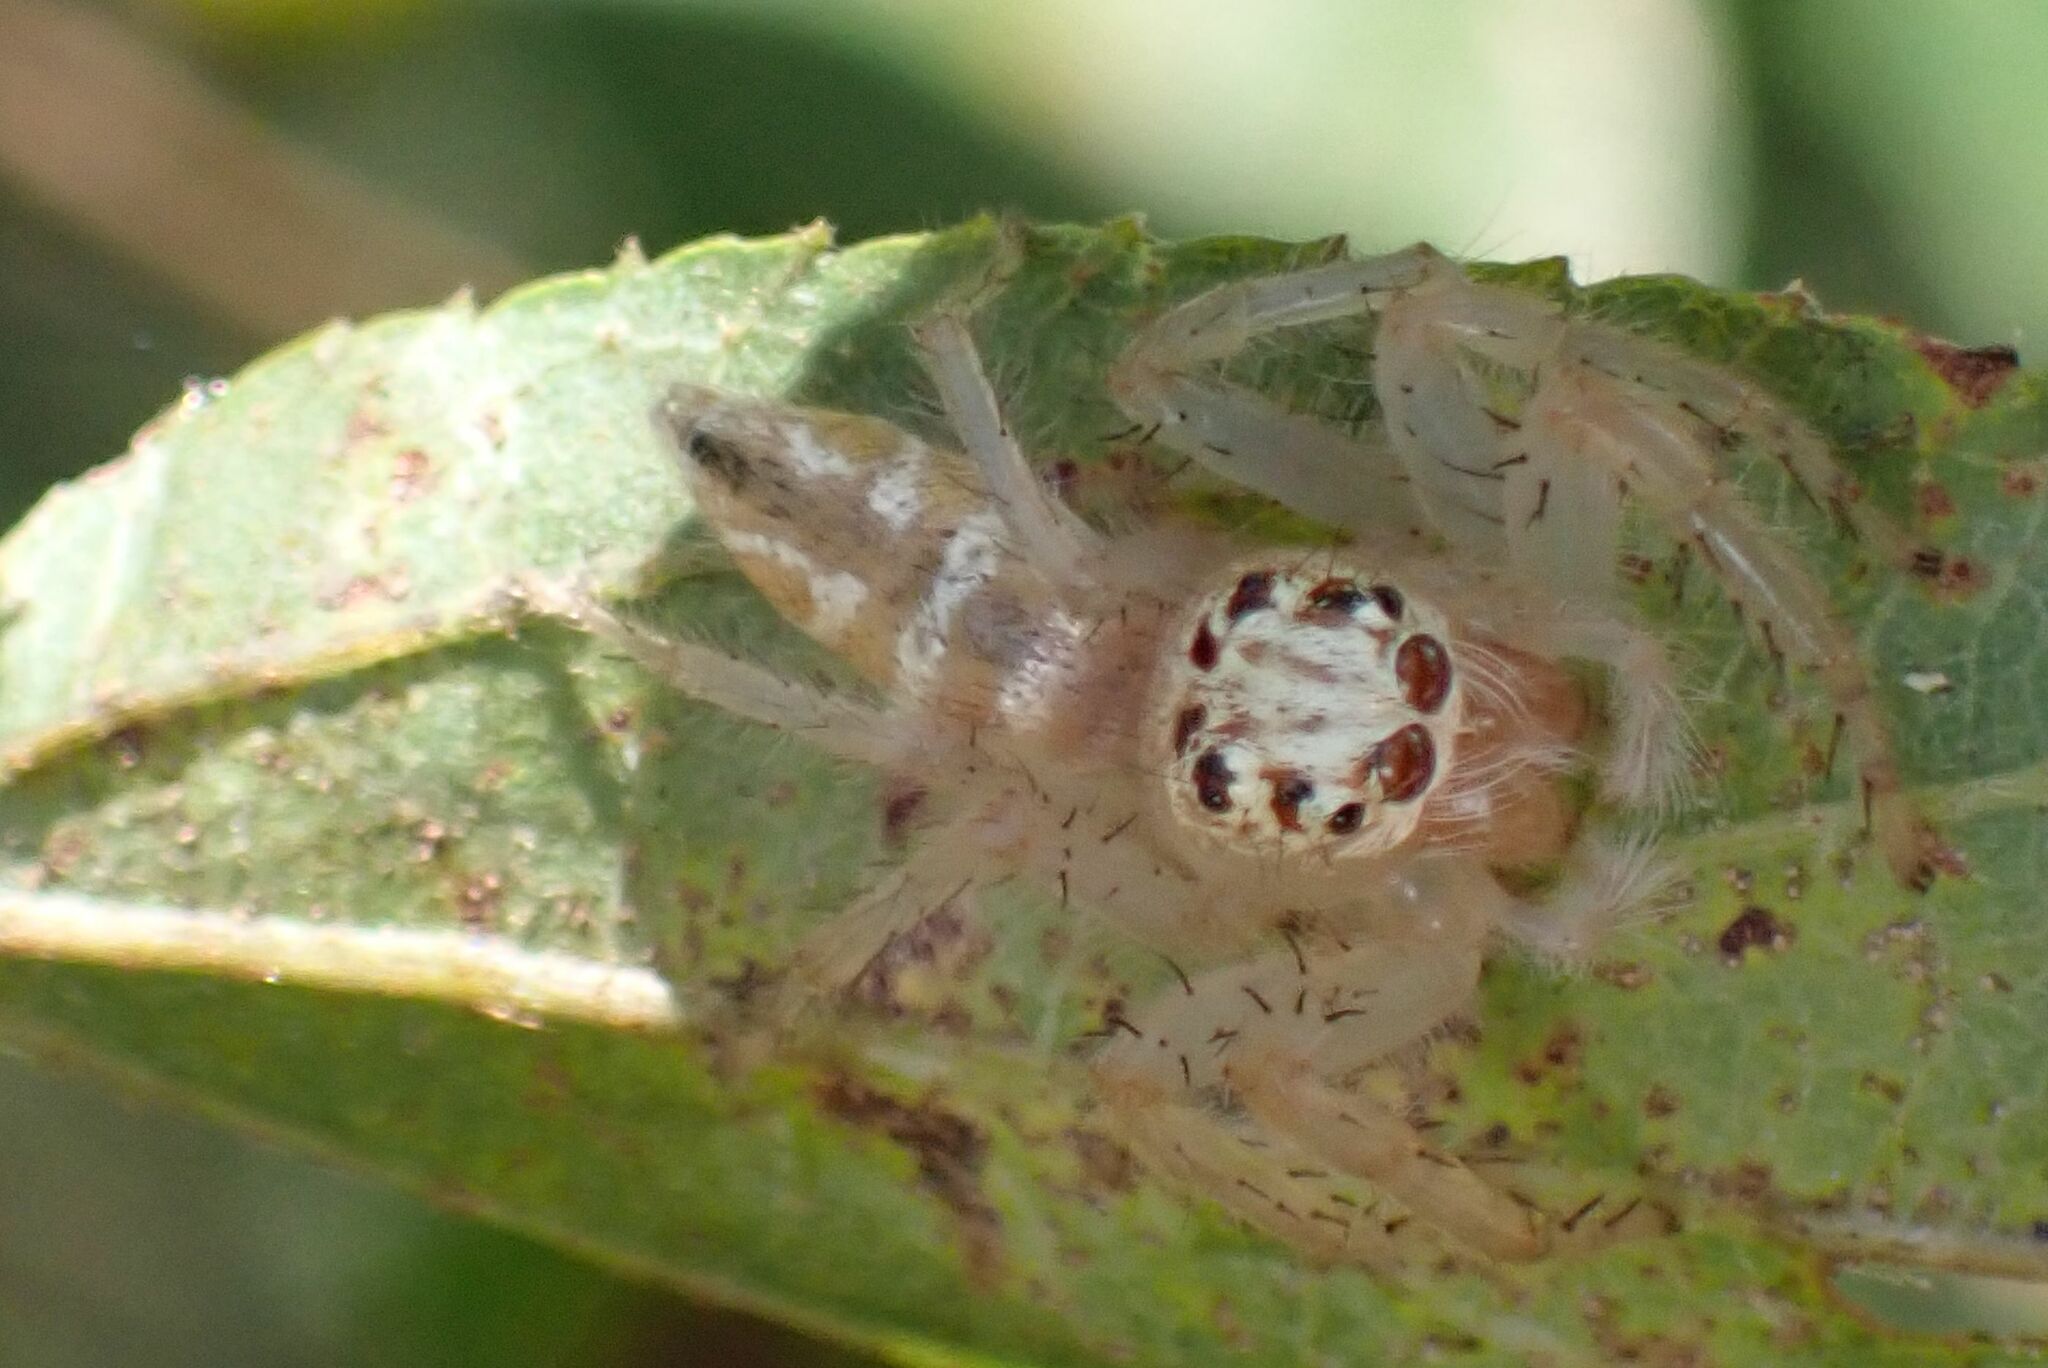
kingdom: Animalia
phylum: Arthropoda
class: Arachnida
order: Araneae
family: Salticidae
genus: Brancus
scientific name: Brancus mustelus
